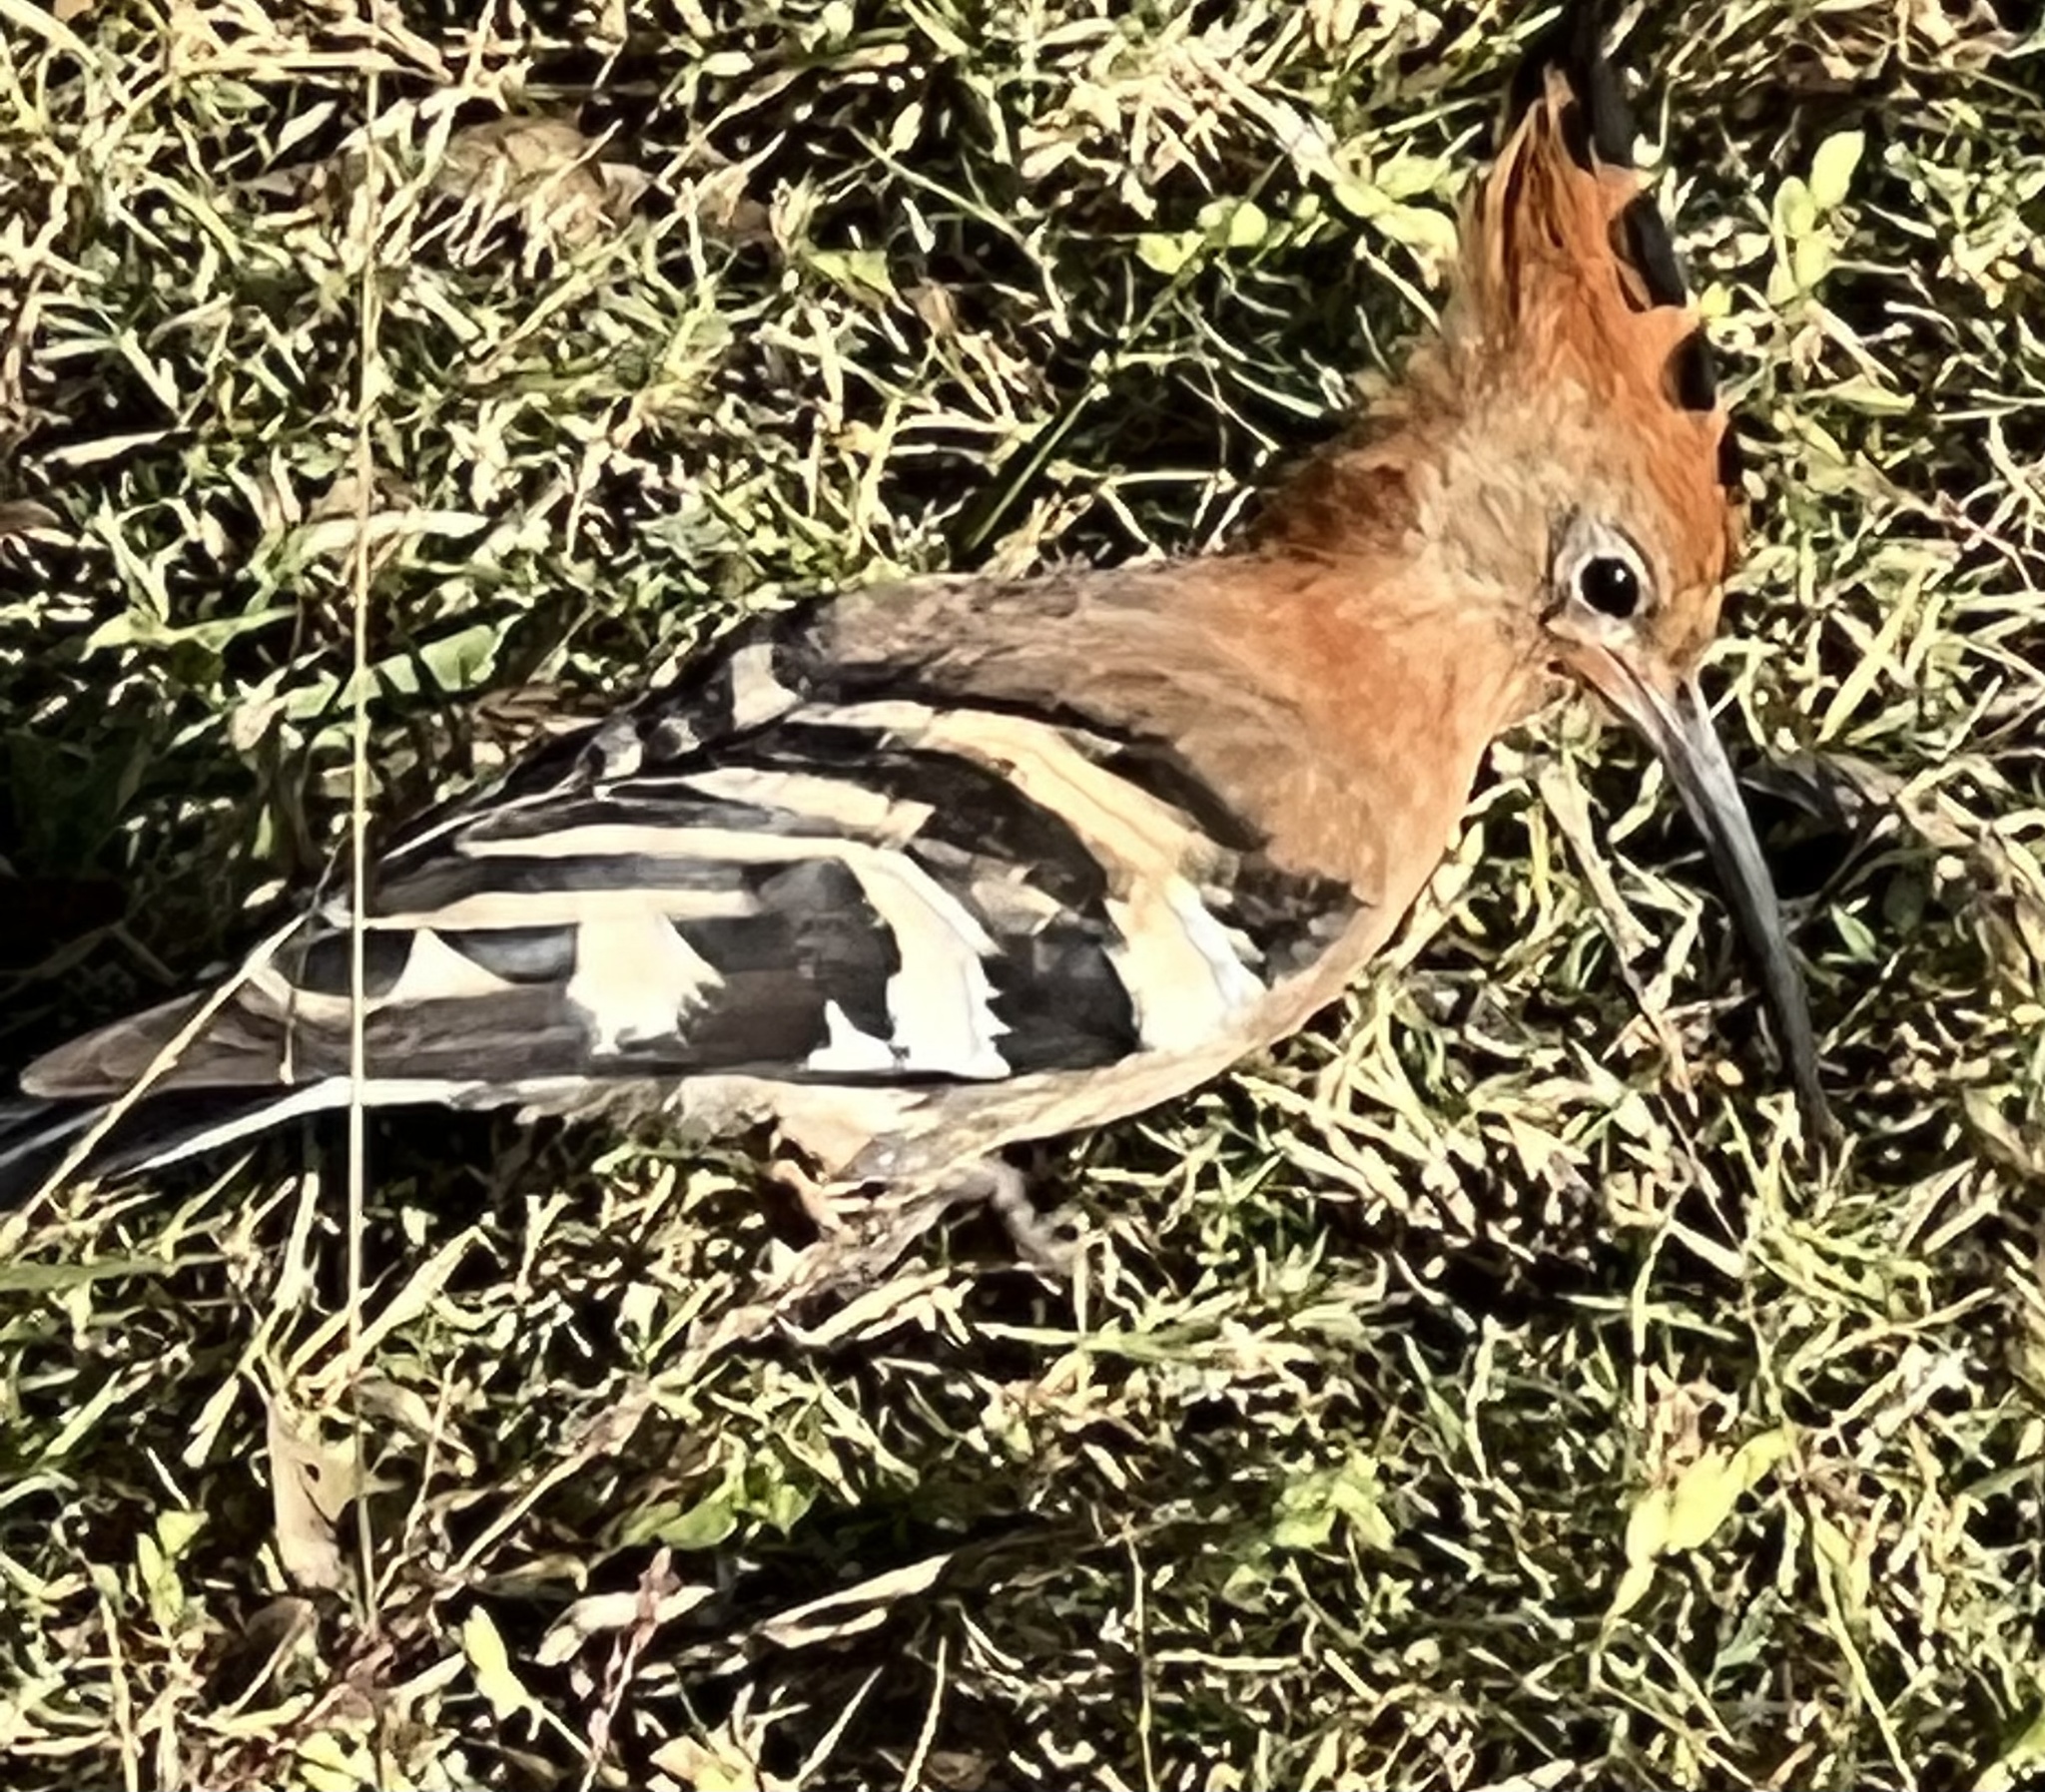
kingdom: Animalia
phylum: Chordata
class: Aves
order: Bucerotiformes
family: Upupidae
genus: Upupa
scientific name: Upupa africana
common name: African hoopoe
